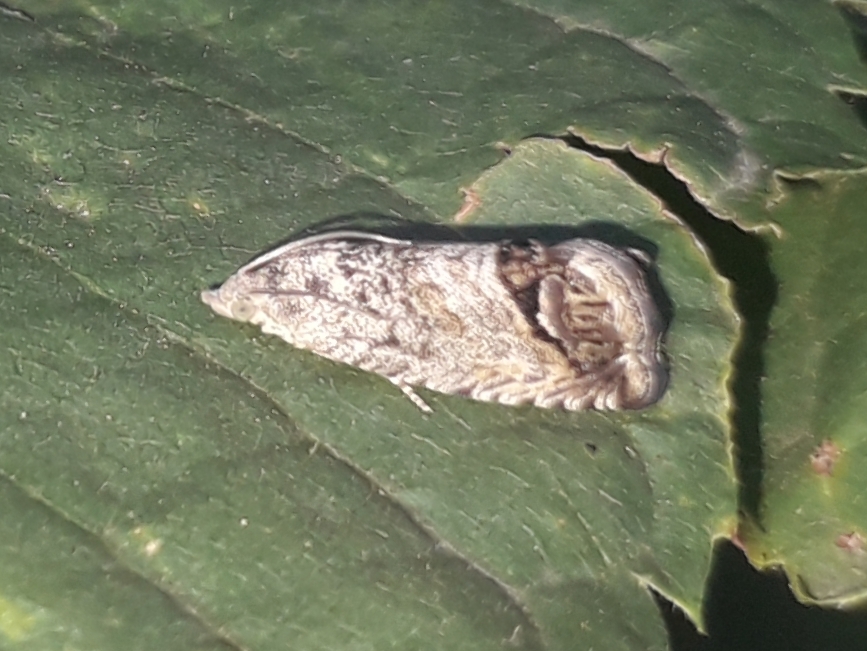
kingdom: Animalia
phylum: Arthropoda
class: Insecta
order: Lepidoptera
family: Tortricidae
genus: Cydia
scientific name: Cydia splendana
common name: De: kastanienwickler, eichenwickler es: oruga de la castaña fr: carpocapse des châtaignes it: cidia o tortrice tardiva delle castagne pt: bichado das castanhas gb: acorn moth, chestnut fruit tortrix
